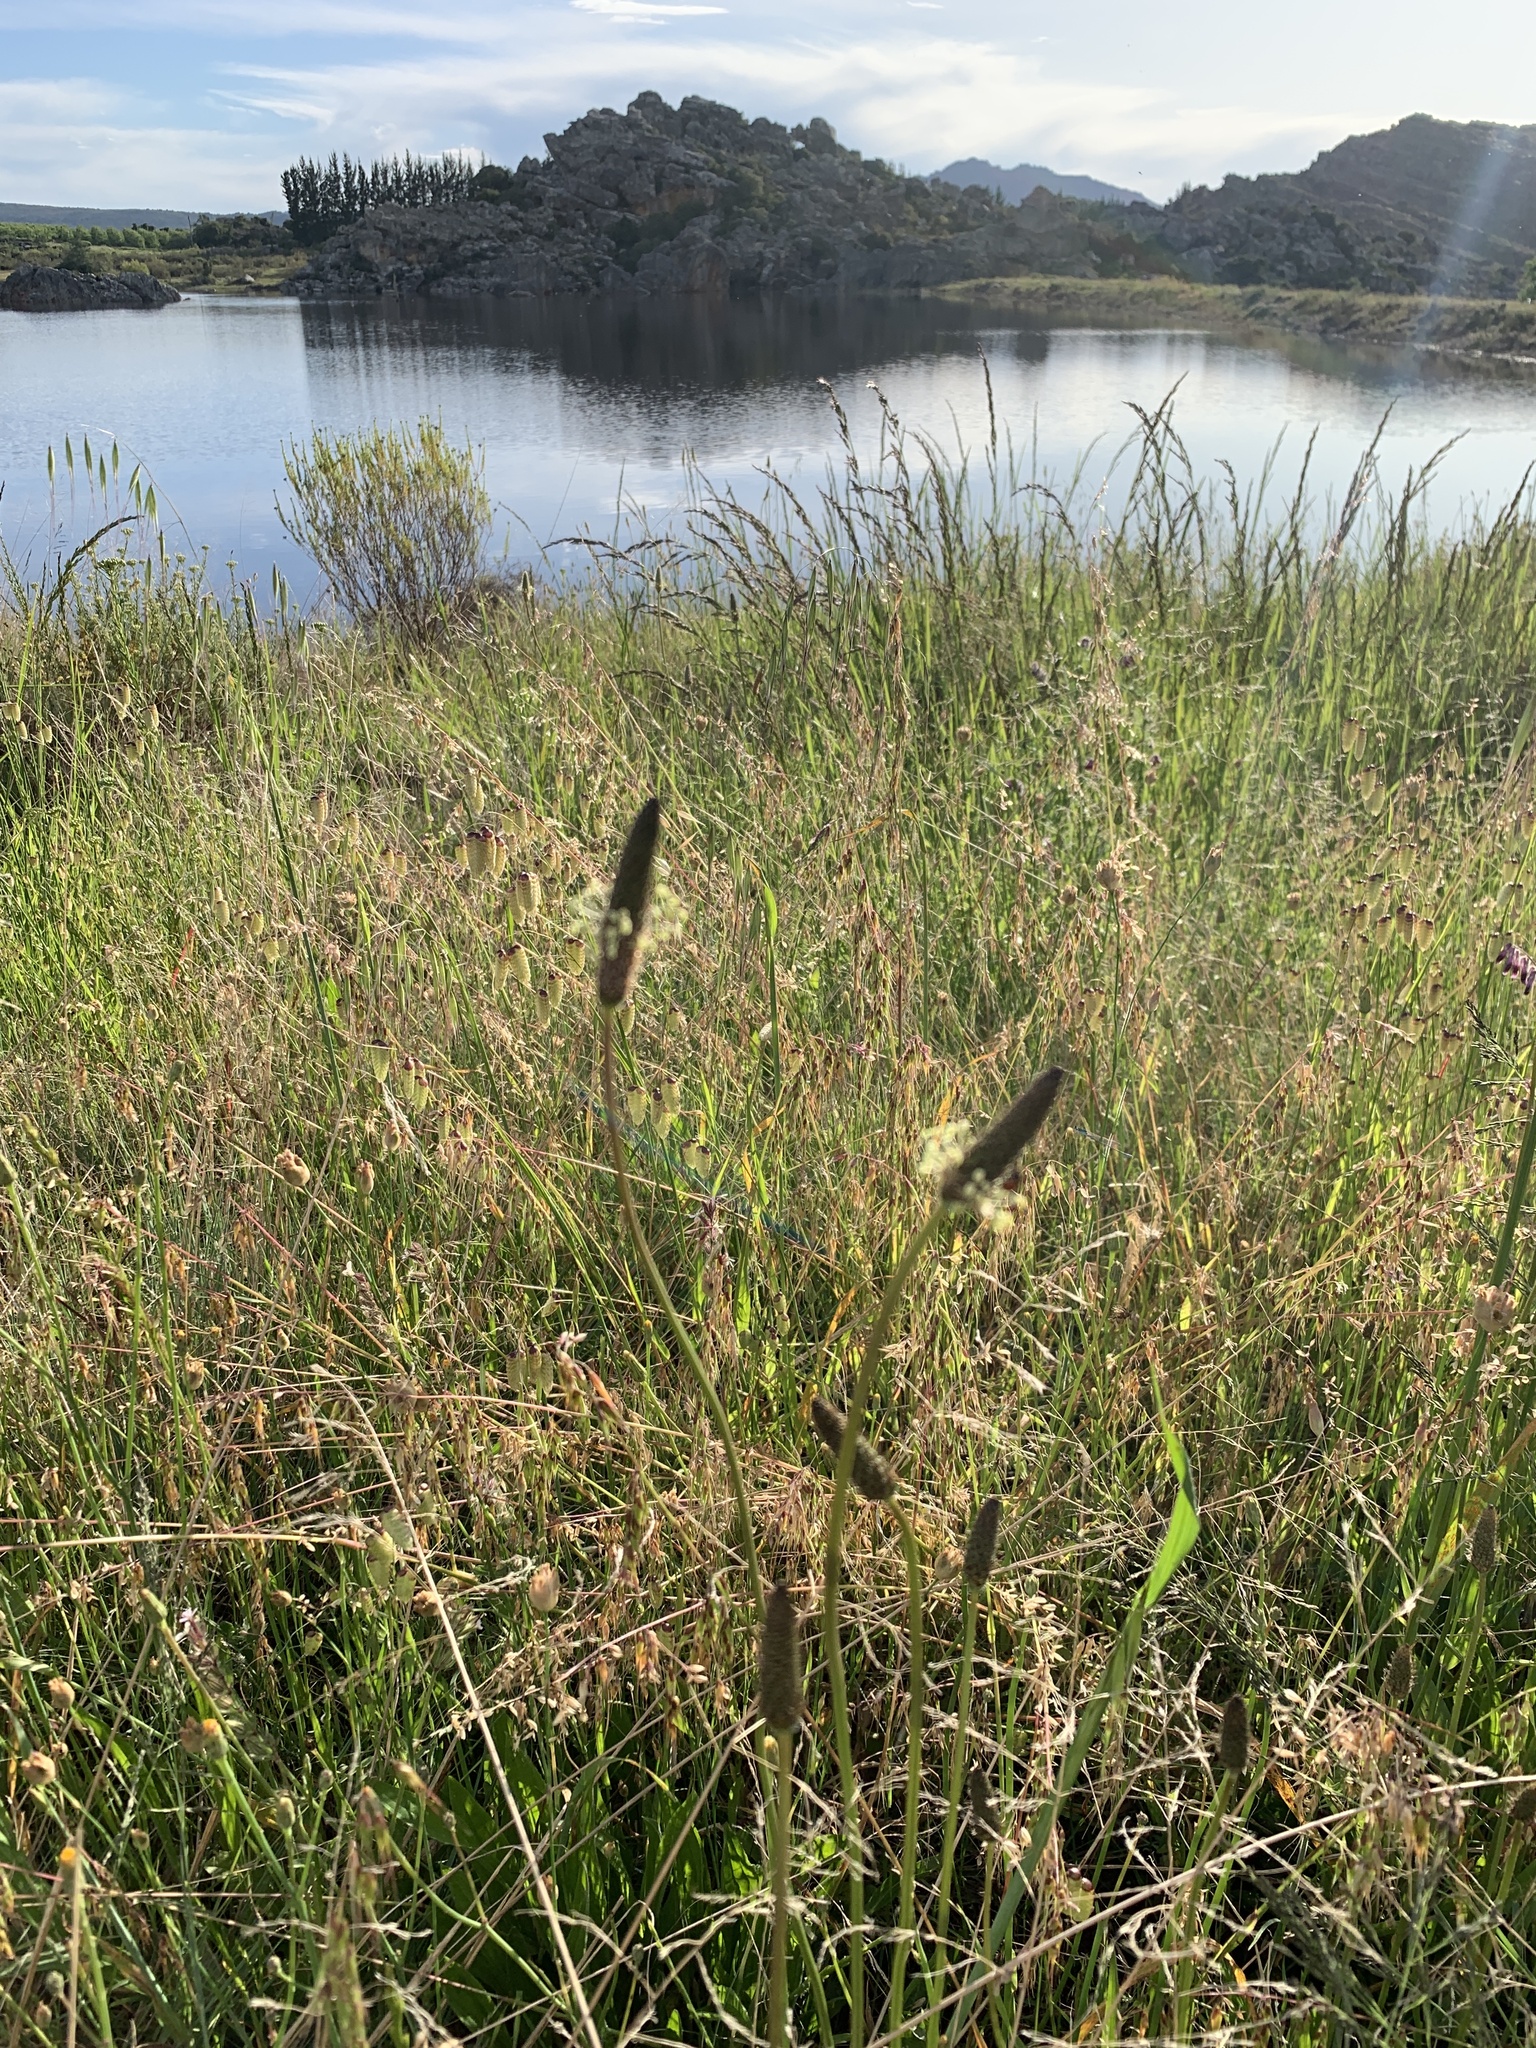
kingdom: Plantae
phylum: Tracheophyta
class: Magnoliopsida
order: Lamiales
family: Plantaginaceae
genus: Plantago
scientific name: Plantago lanceolata
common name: Ribwort plantain
